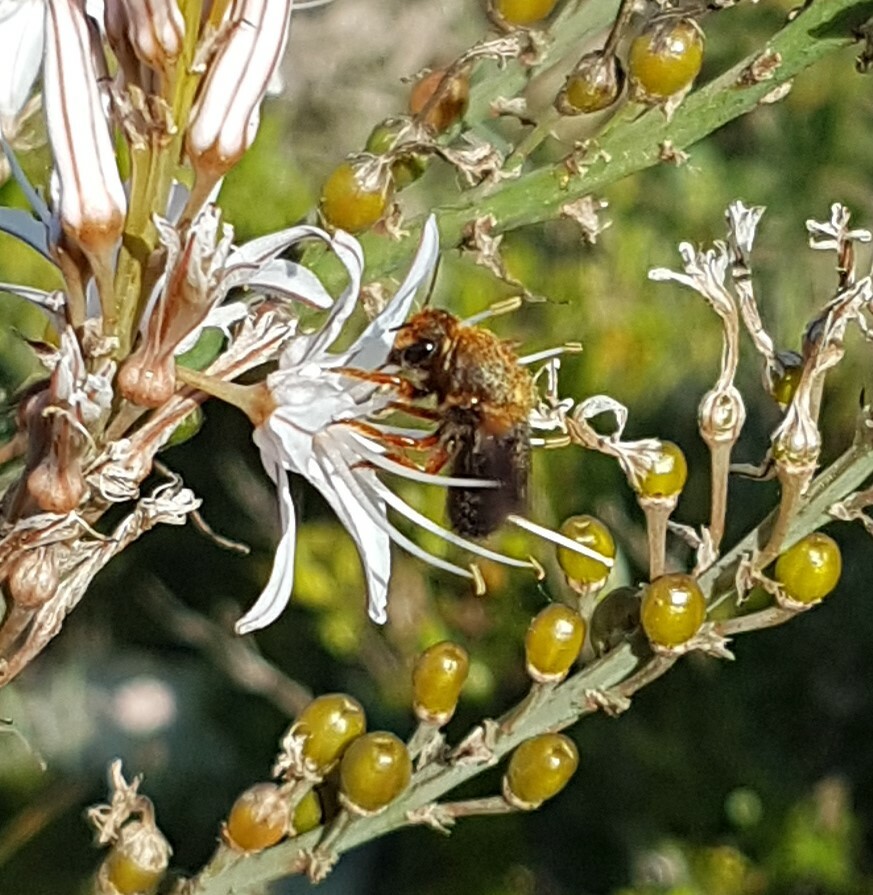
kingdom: Animalia
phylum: Arthropoda
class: Insecta
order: Hymenoptera
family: Megachilidae
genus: Megachile
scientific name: Megachile sicula
